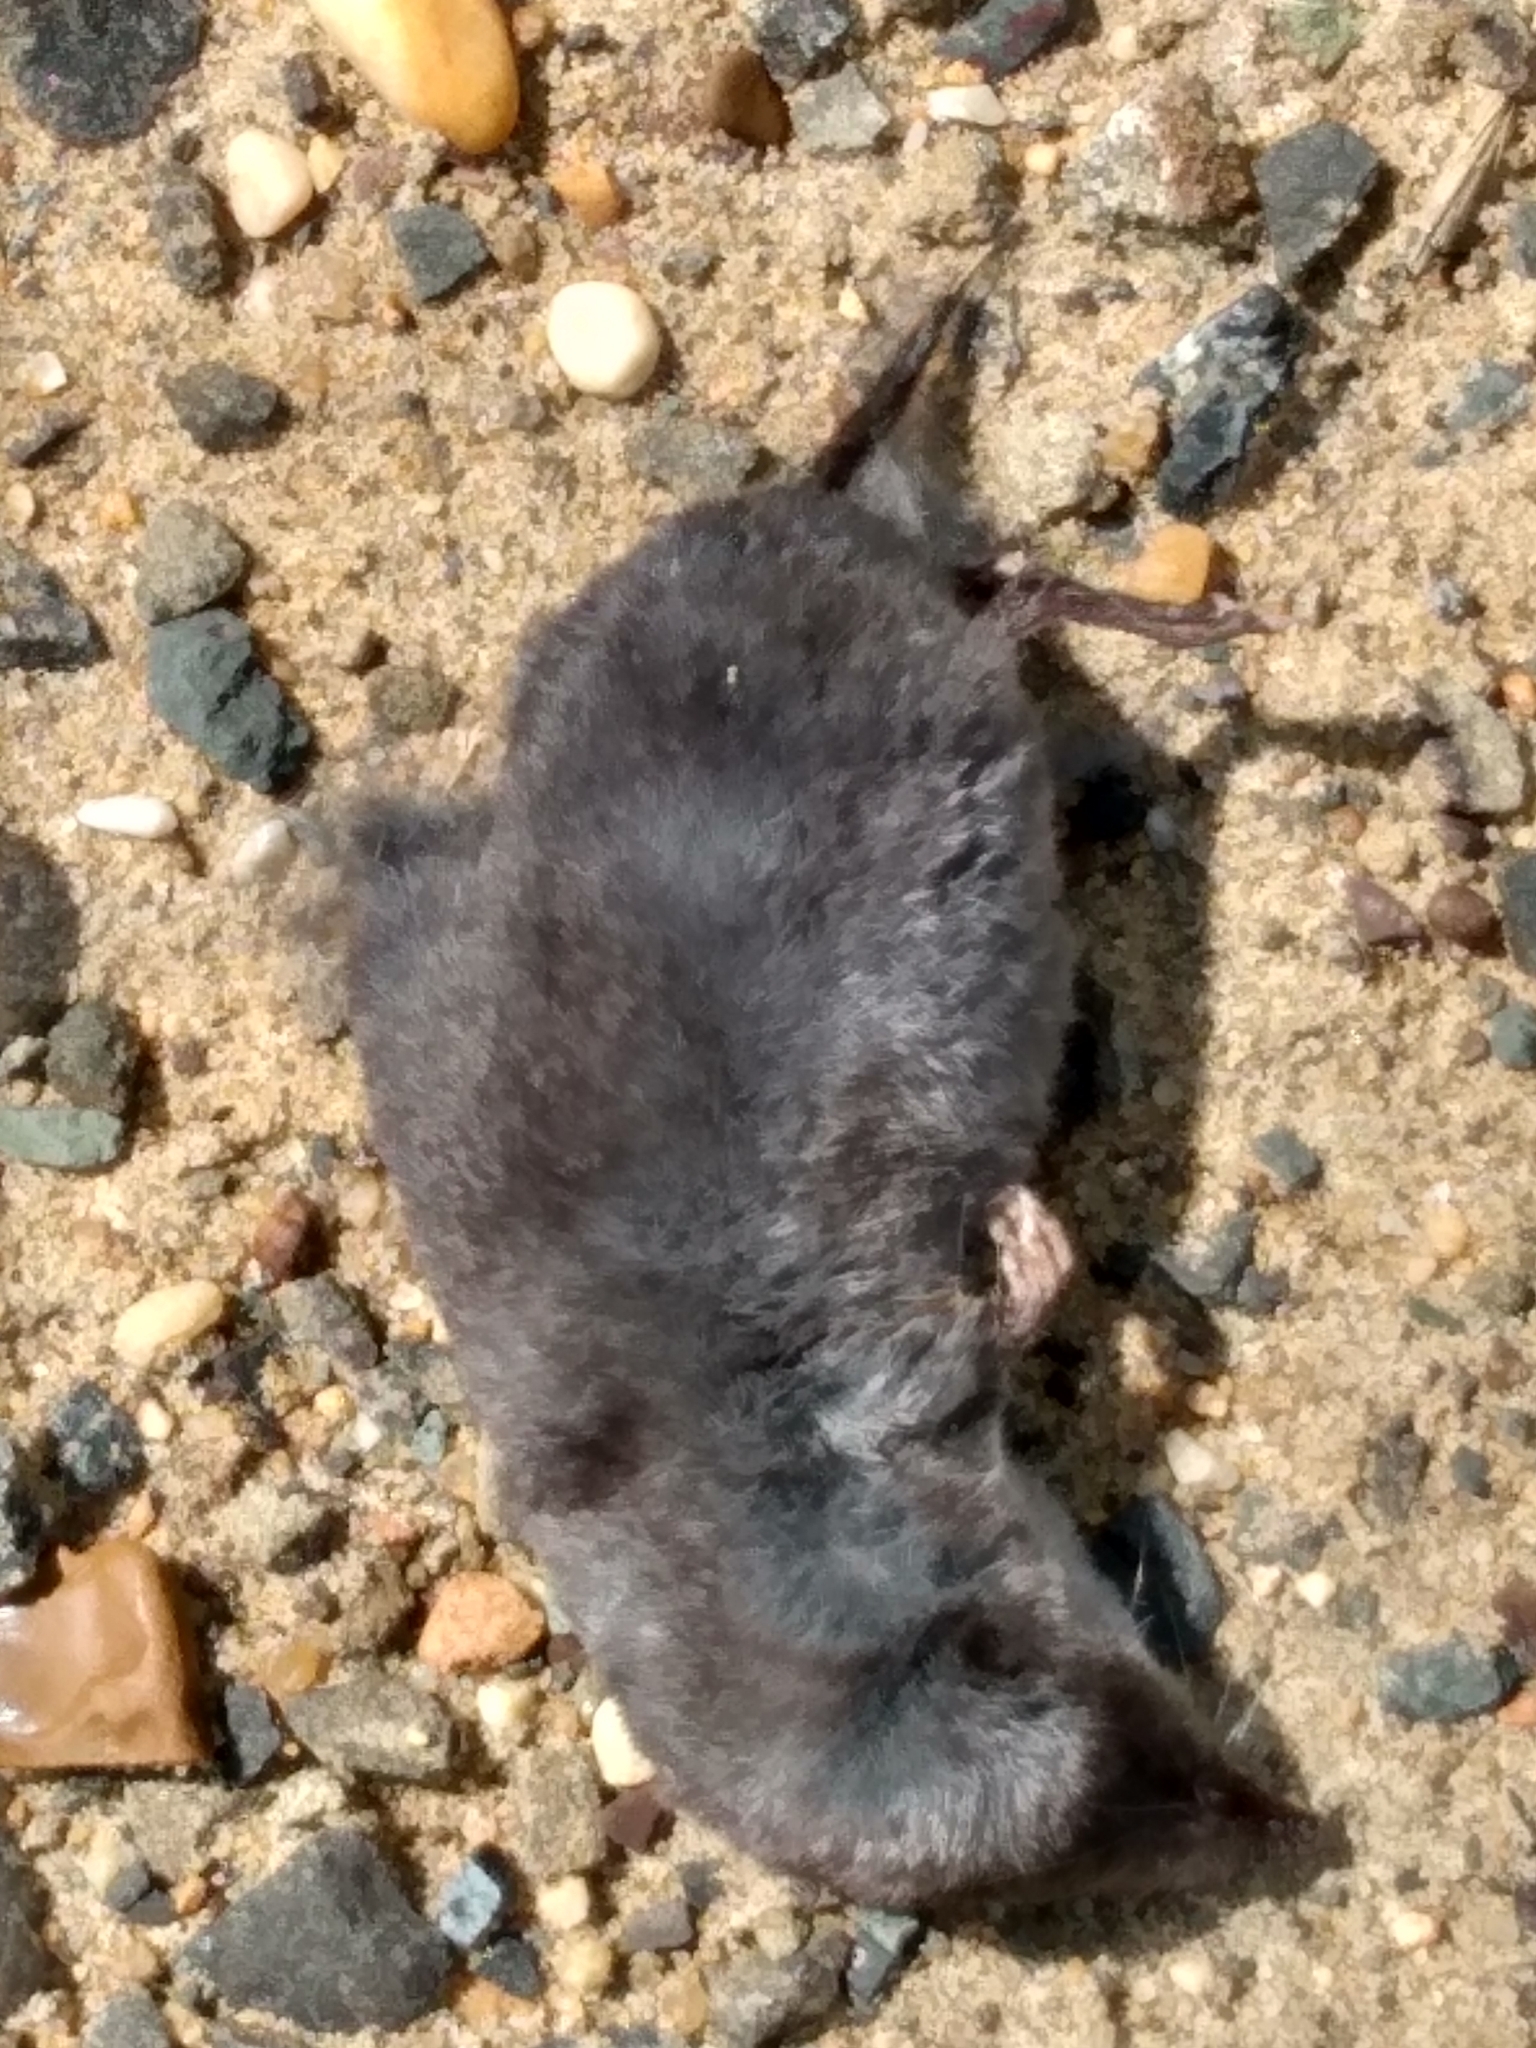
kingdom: Animalia
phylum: Chordata
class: Mammalia
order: Soricomorpha
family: Soricidae
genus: Blarina
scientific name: Blarina brevicauda
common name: Northern short-tailed shrew
